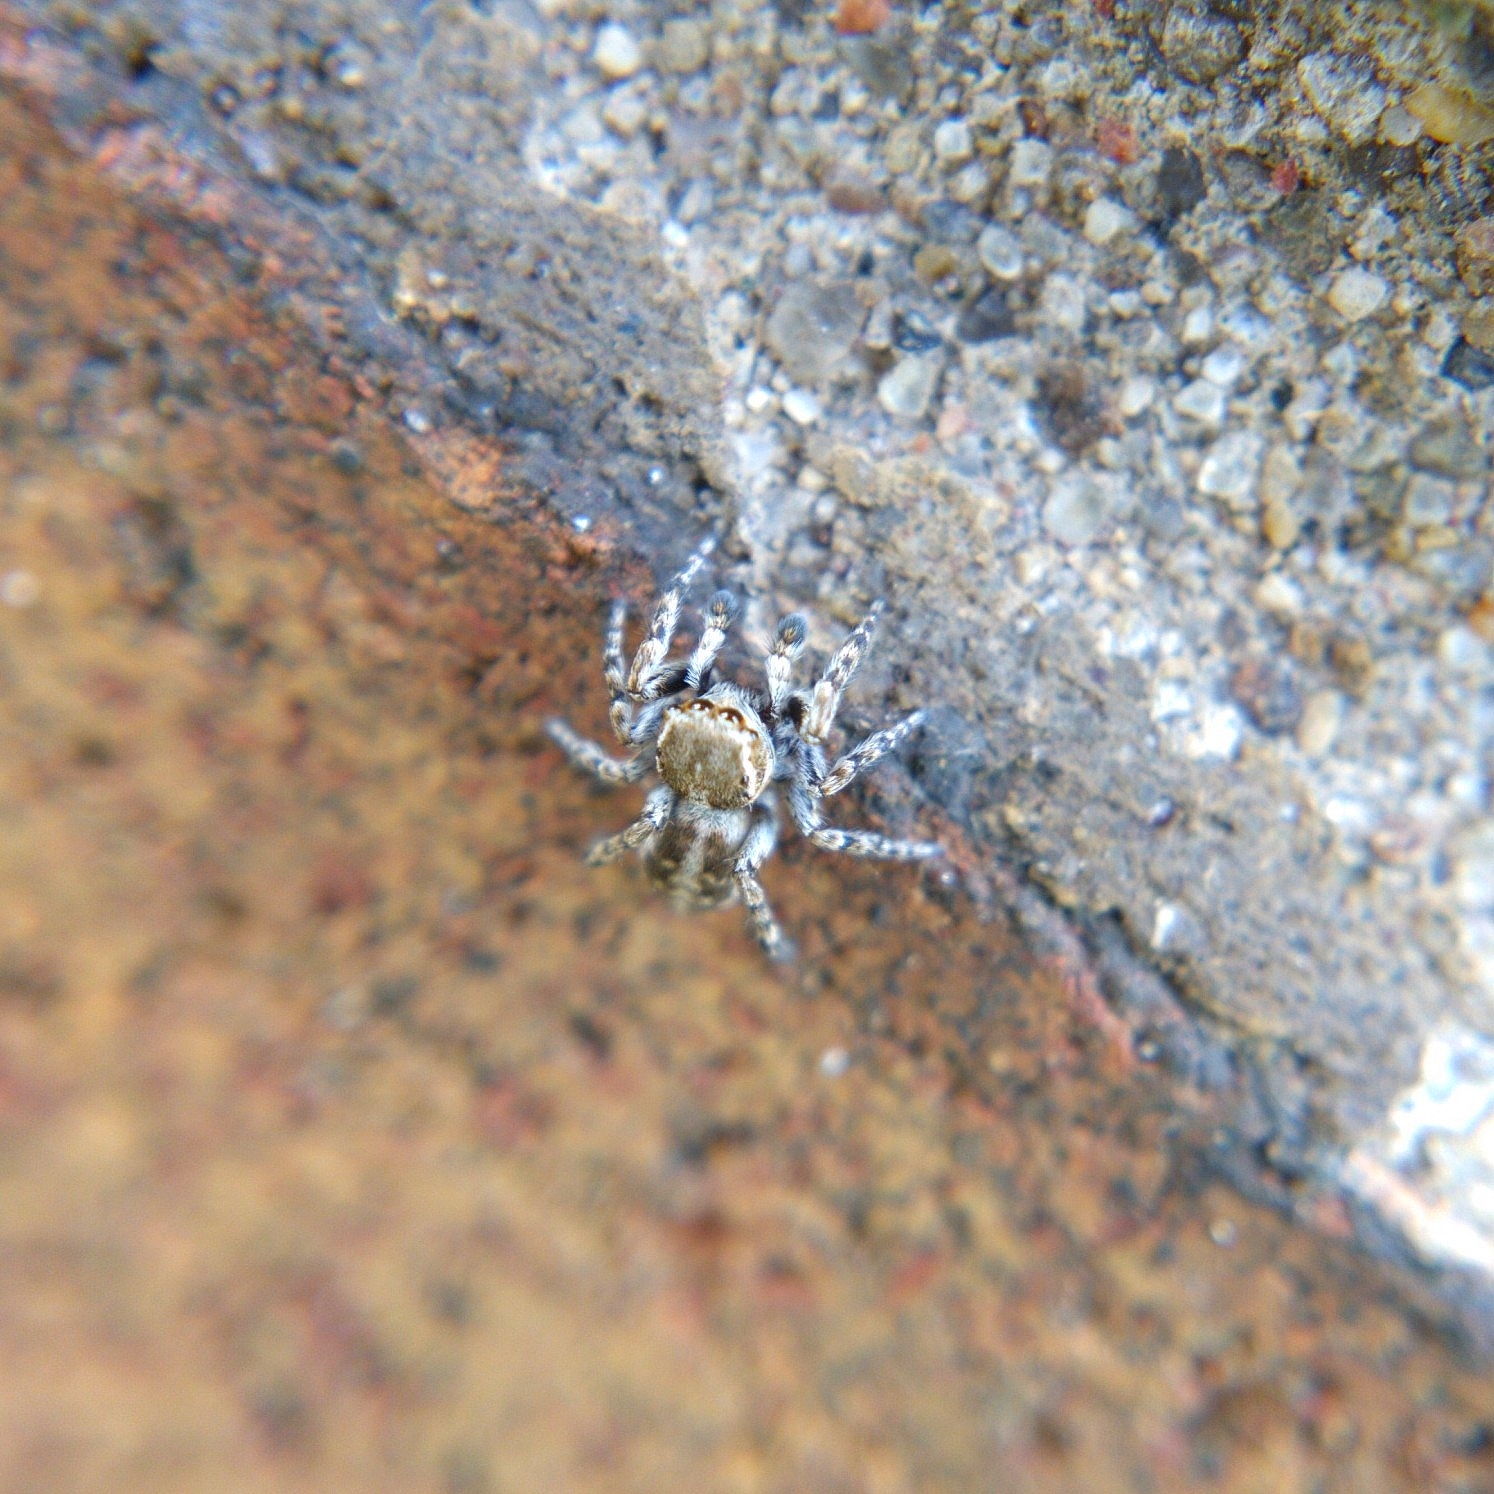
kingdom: Animalia
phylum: Arthropoda
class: Arachnida
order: Araneae
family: Salticidae
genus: Attulus
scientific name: Attulus ammophilus
